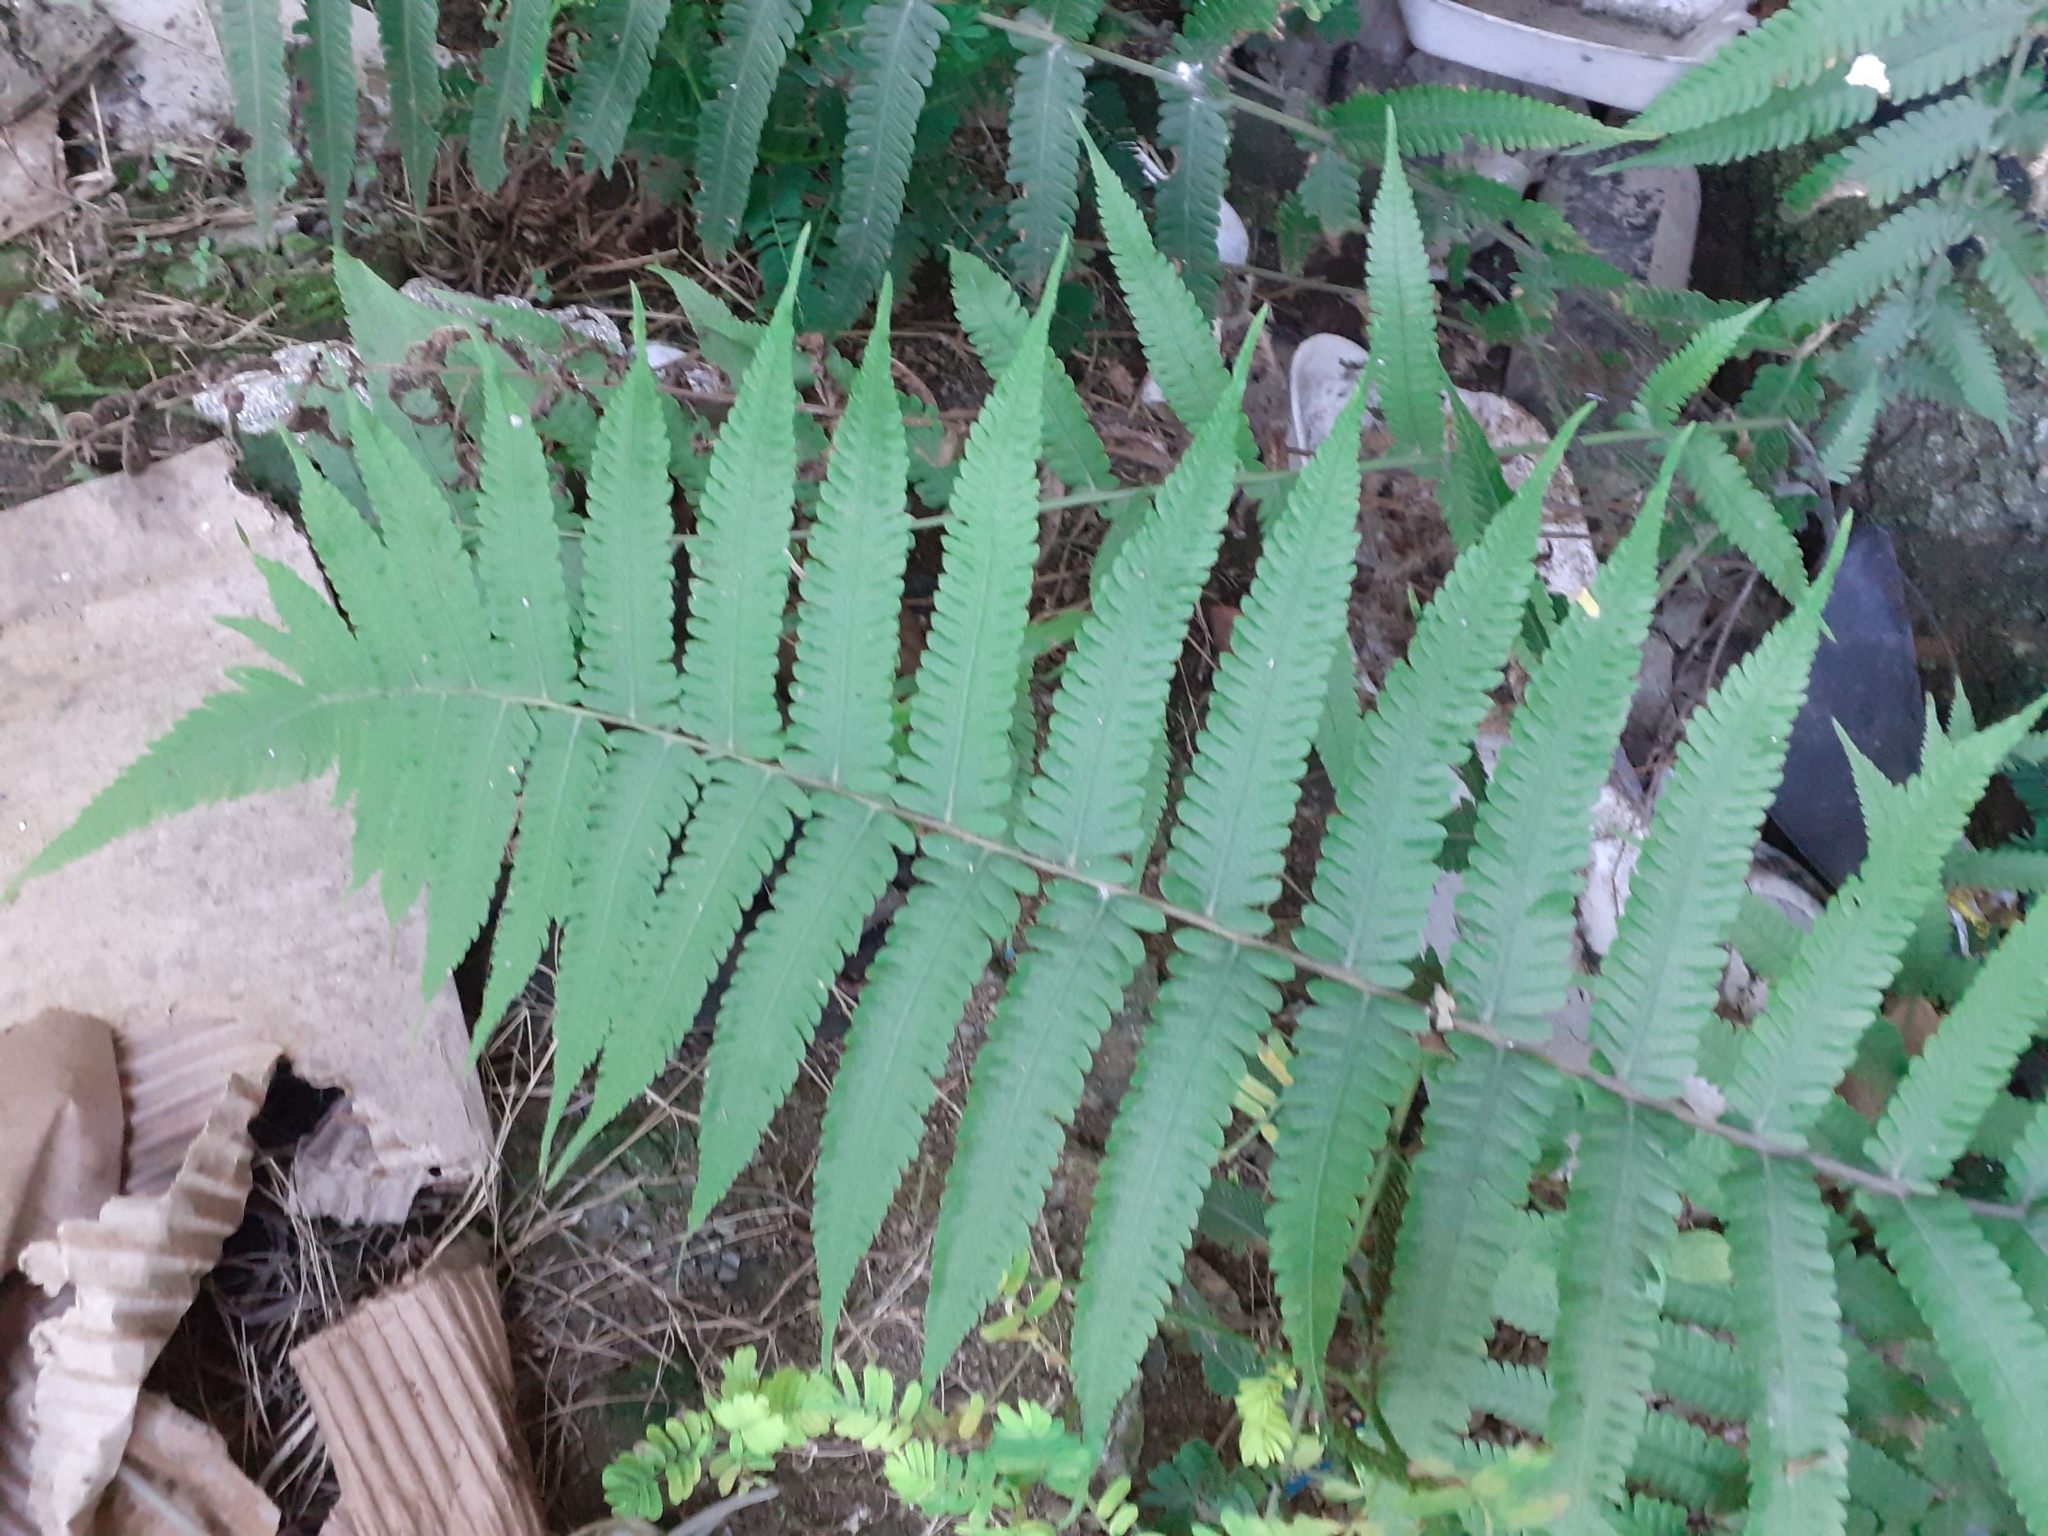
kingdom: Plantae
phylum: Tracheophyta
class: Polypodiopsida
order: Polypodiales
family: Thelypteridaceae
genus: Christella
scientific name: Christella dentata
